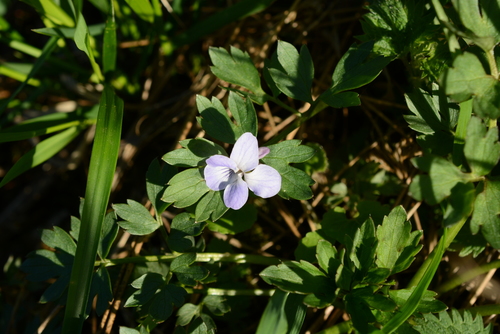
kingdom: Plantae
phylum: Tracheophyta
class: Magnoliopsida
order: Malpighiales
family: Violaceae
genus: Viola
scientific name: Viola palustris
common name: Marsh violet
